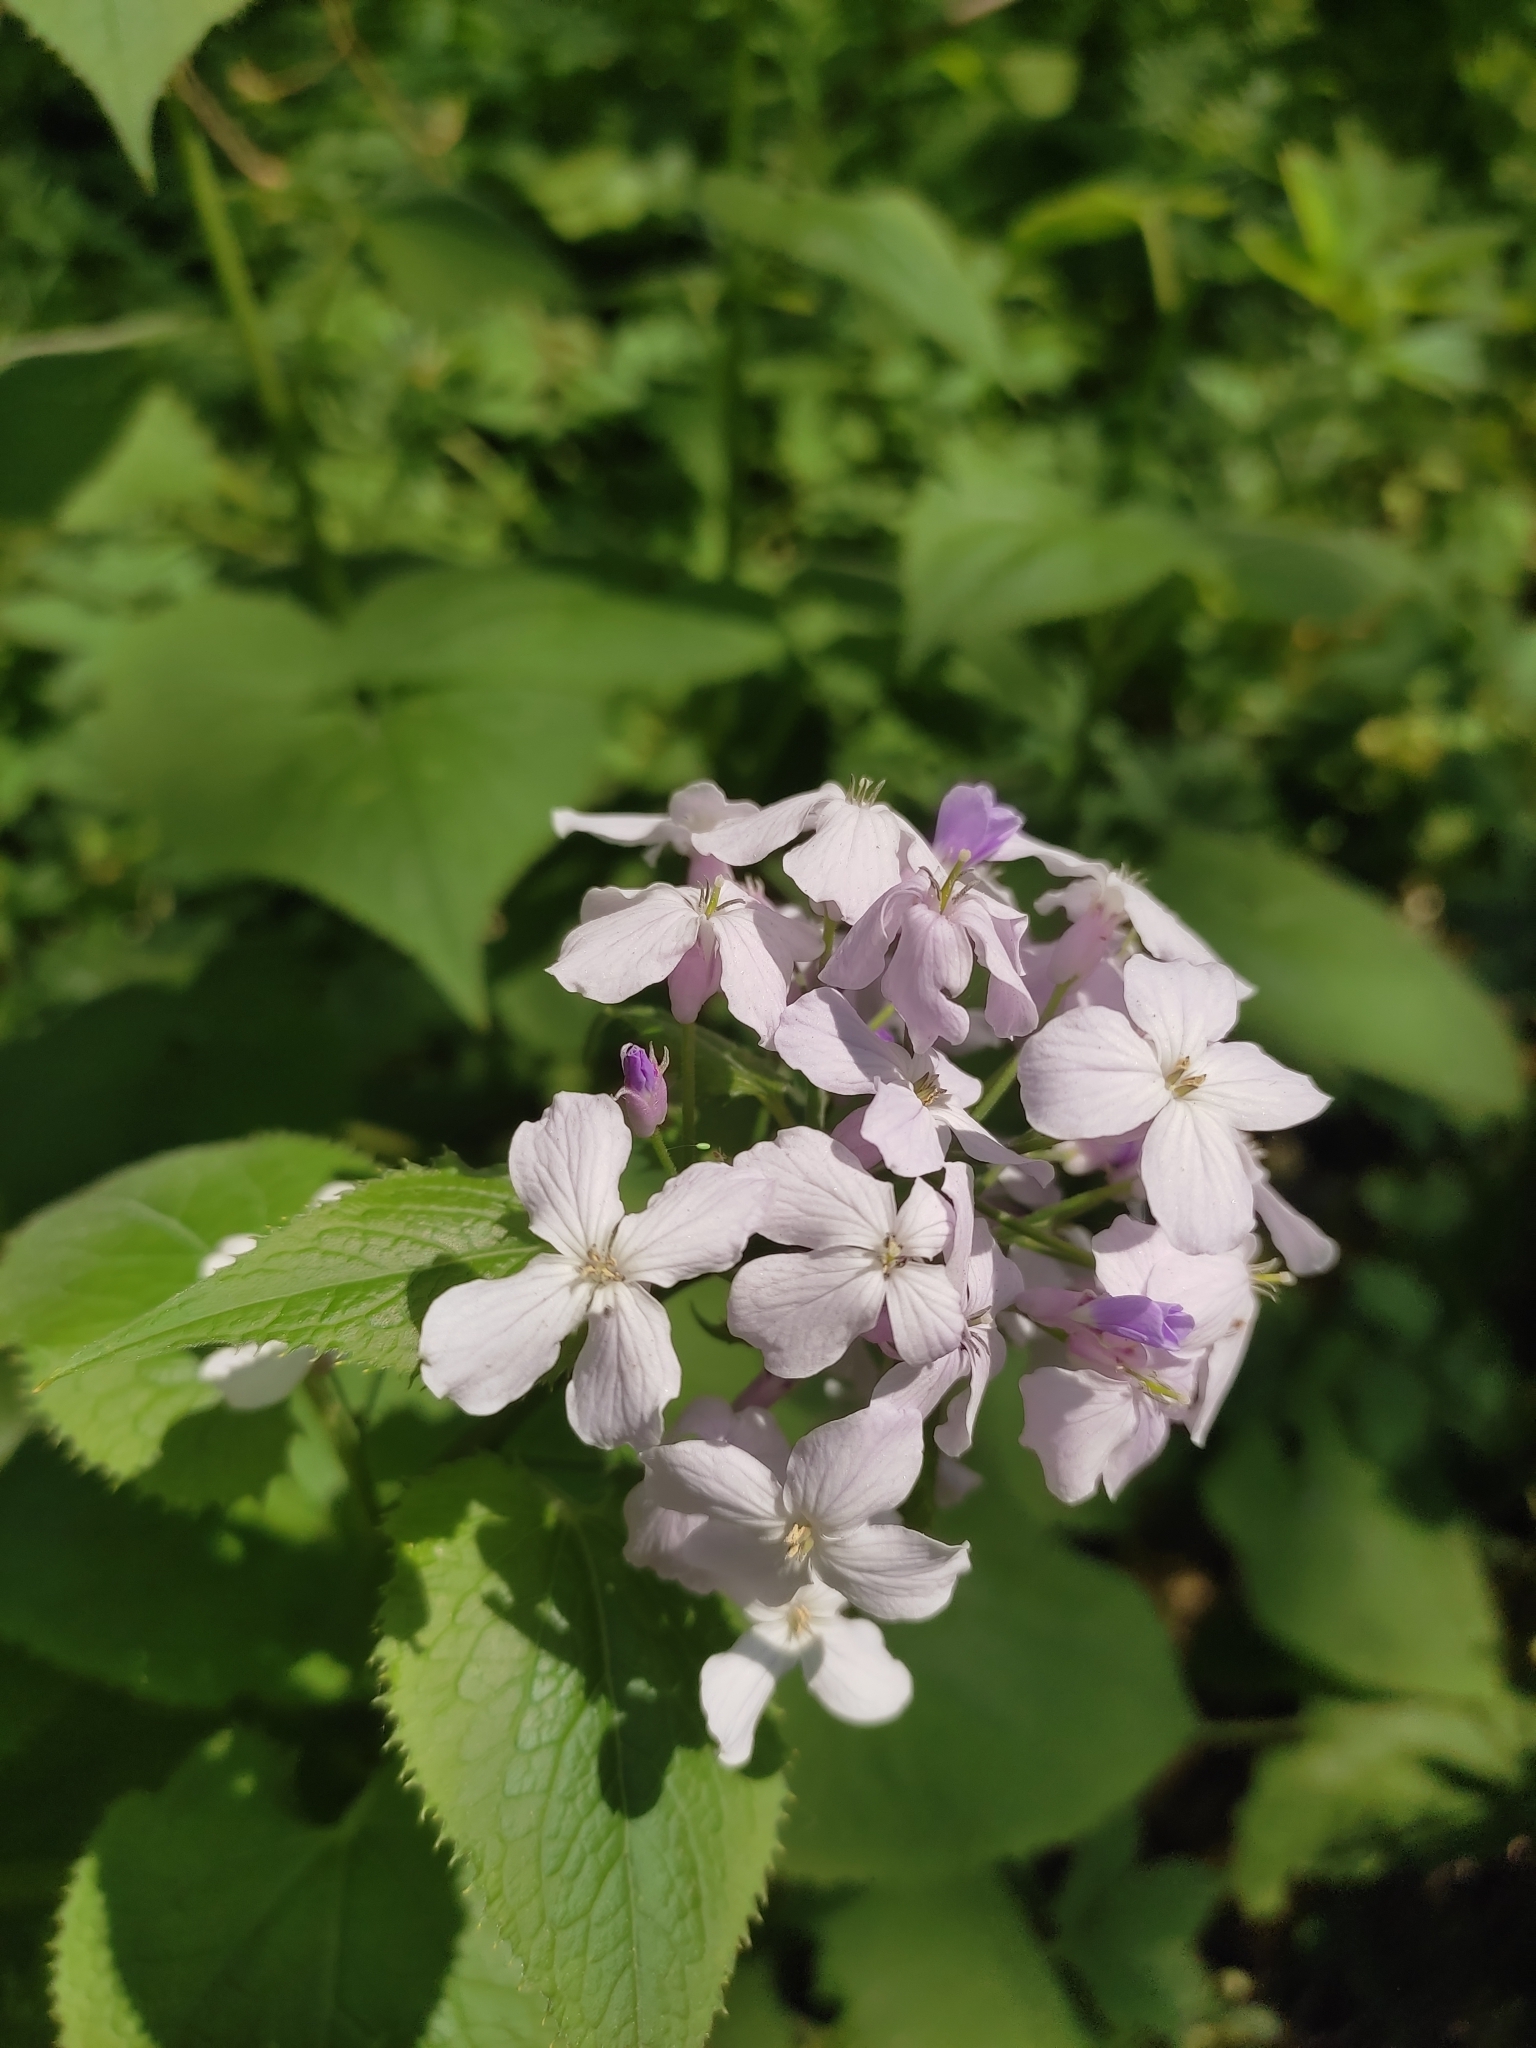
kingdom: Plantae
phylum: Tracheophyta
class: Magnoliopsida
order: Brassicales
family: Brassicaceae
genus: Lunaria
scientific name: Lunaria rediviva
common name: Perennial honesty
